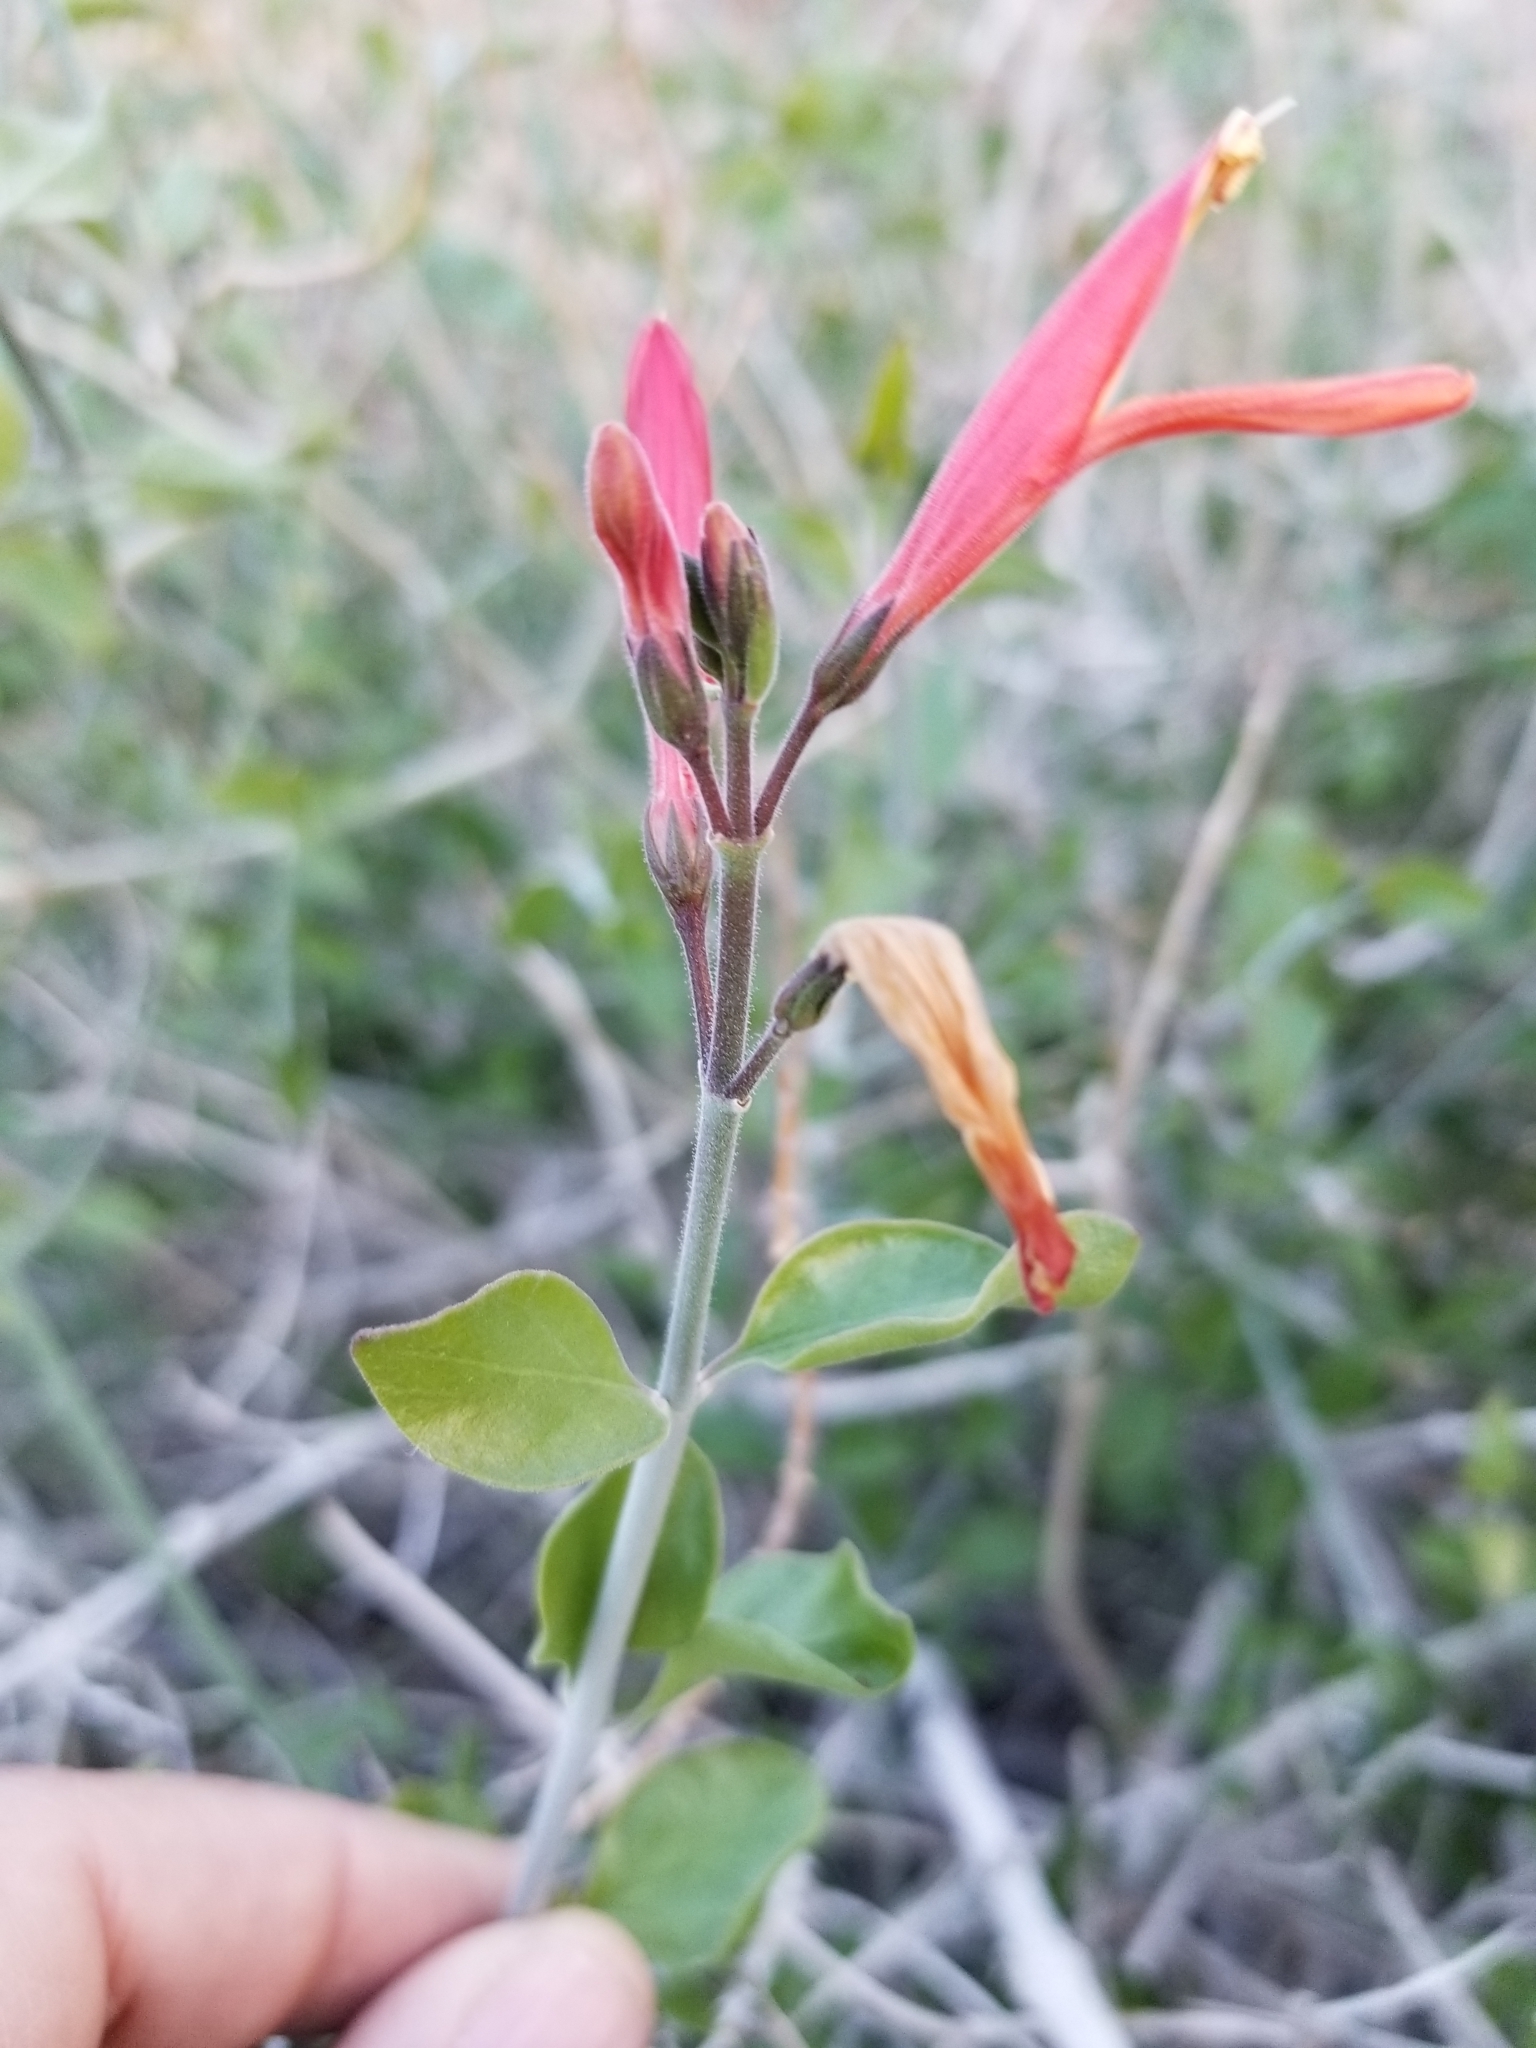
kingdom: Plantae
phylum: Tracheophyta
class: Magnoliopsida
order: Lamiales
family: Acanthaceae
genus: Justicia
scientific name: Justicia californica
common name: Chuparosa-honeysuckle
